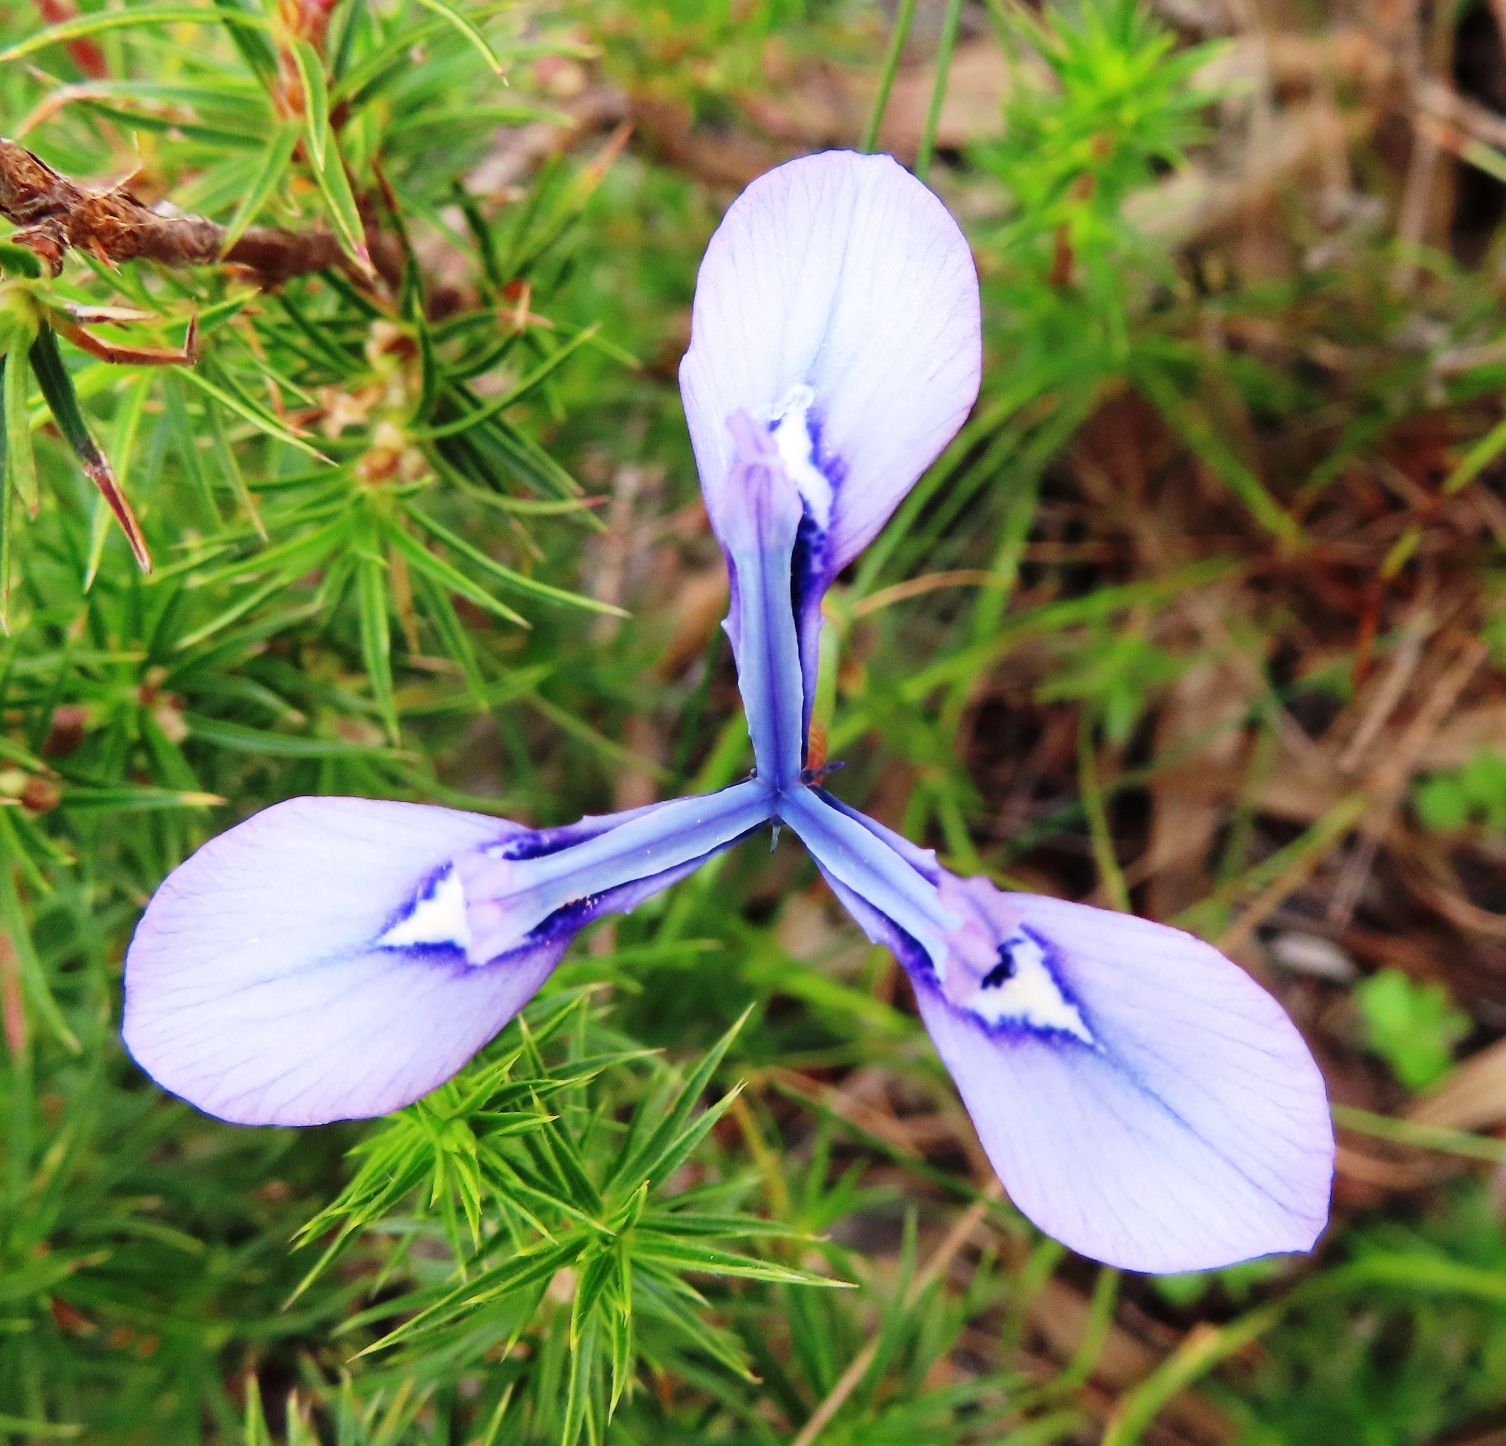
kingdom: Plantae
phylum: Tracheophyta
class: Liliopsida
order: Asparagales
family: Iridaceae
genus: Moraea
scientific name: Moraea tripetala
